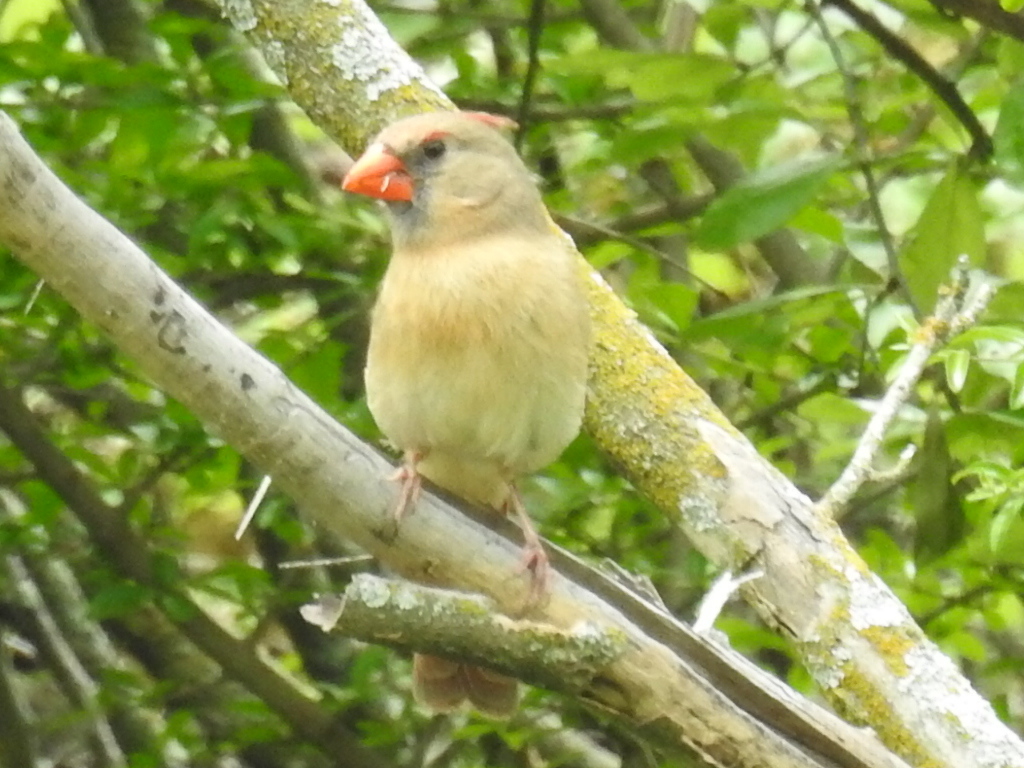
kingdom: Animalia
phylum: Chordata
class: Aves
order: Passeriformes
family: Cardinalidae
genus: Cardinalis
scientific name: Cardinalis cardinalis
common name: Northern cardinal
